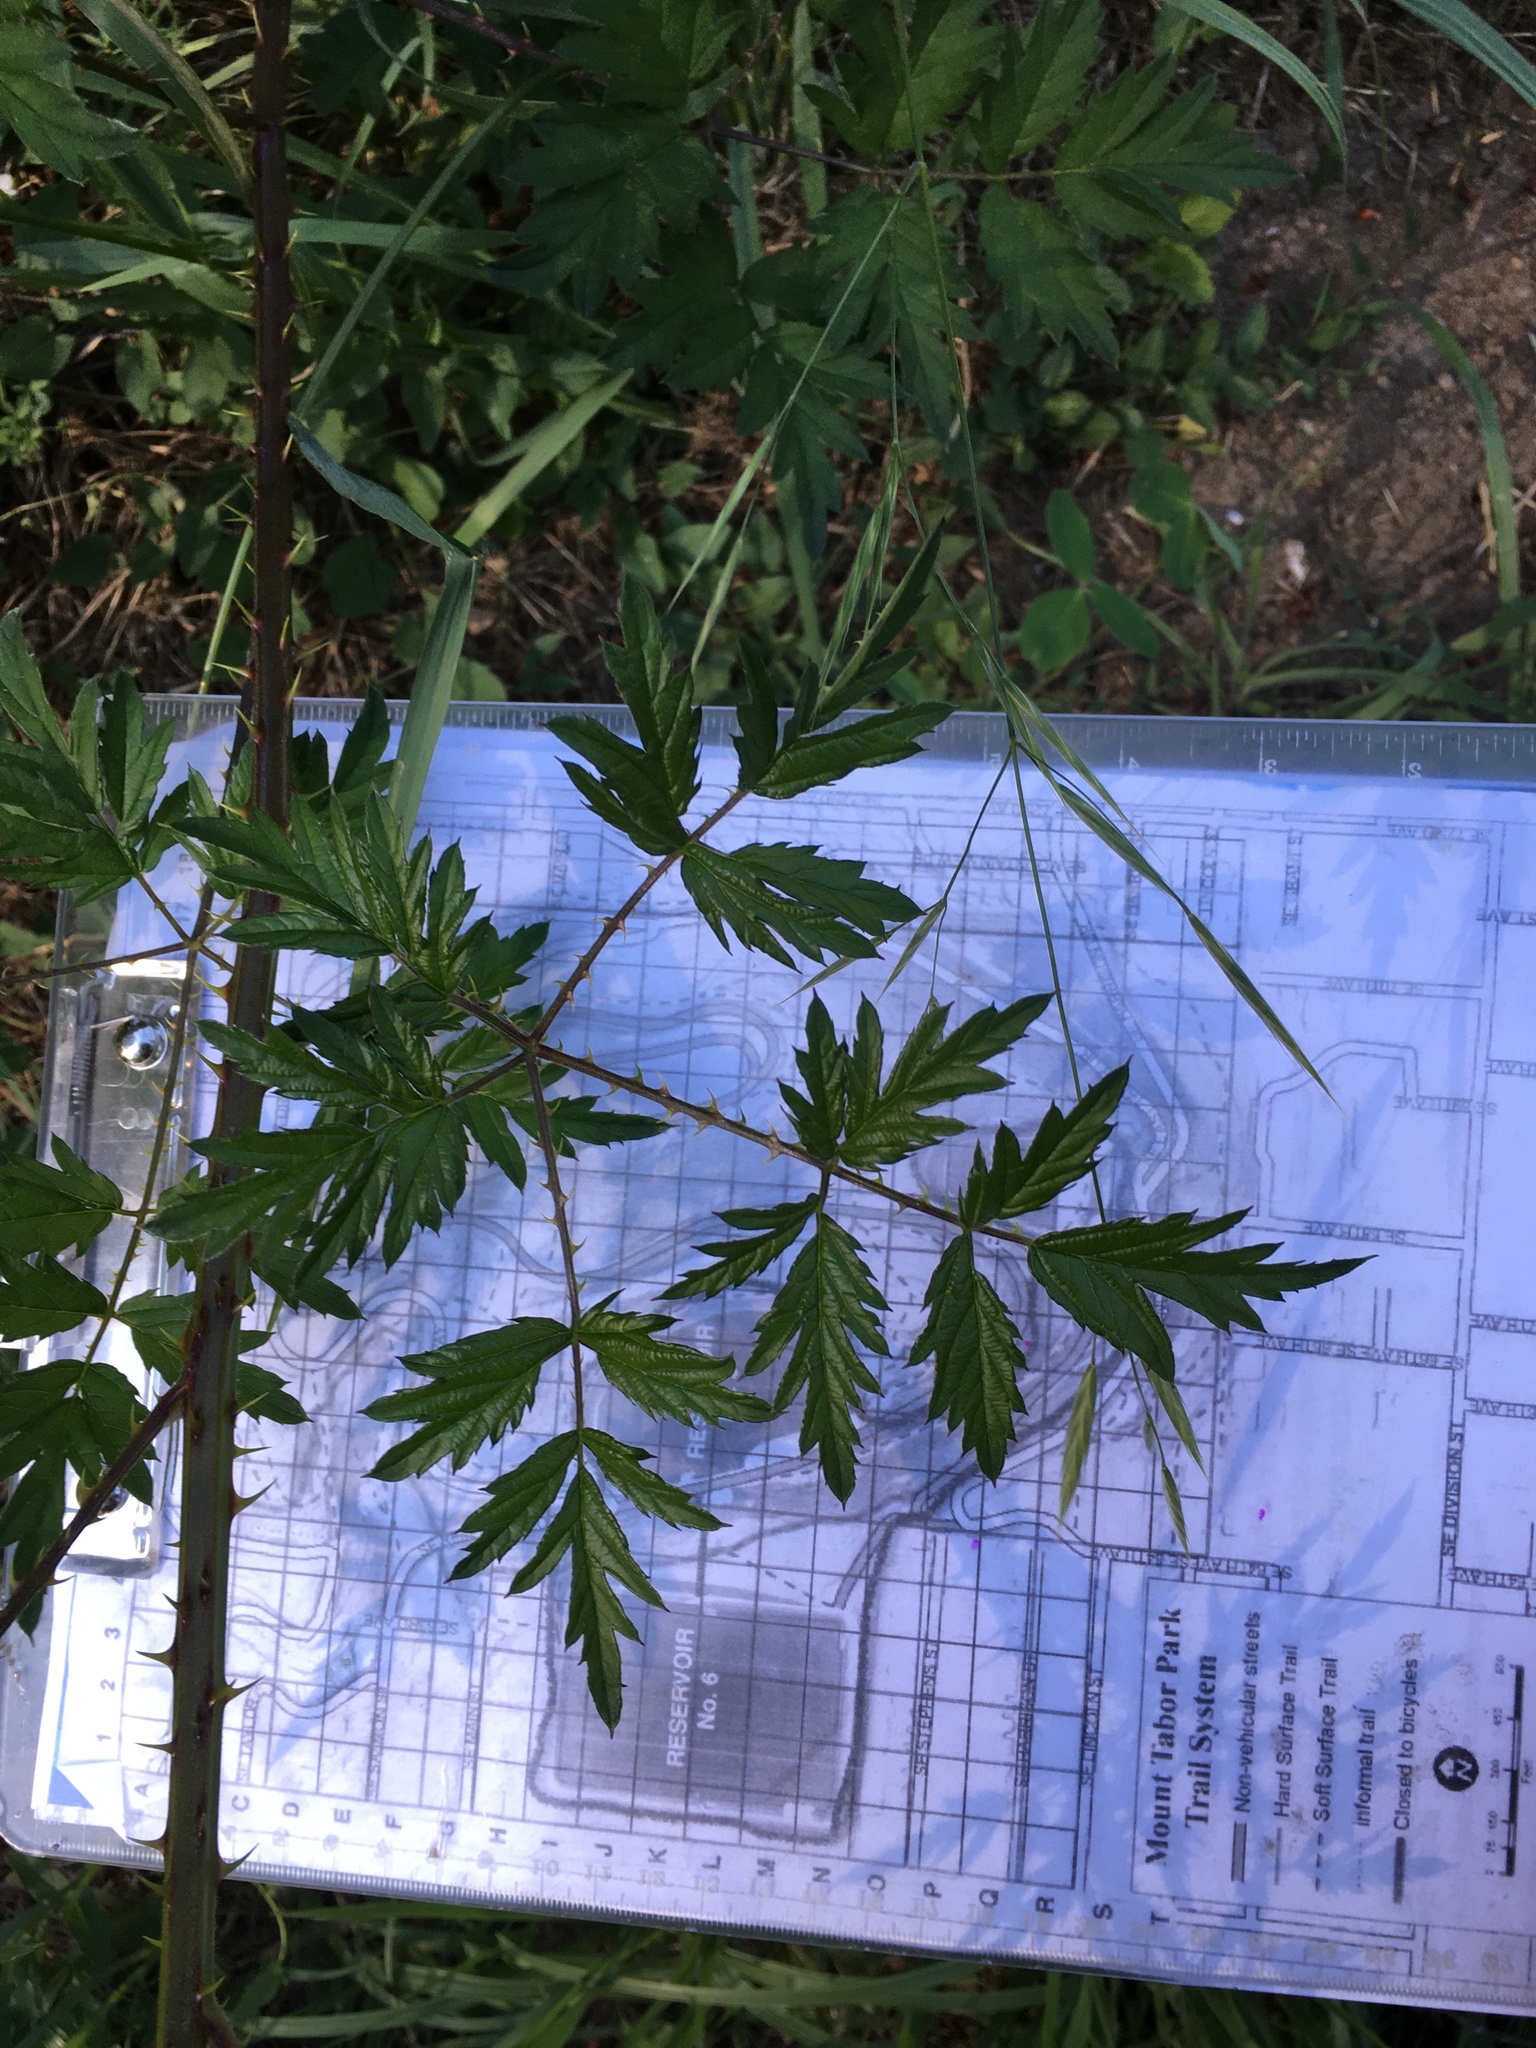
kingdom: Plantae
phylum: Tracheophyta
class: Magnoliopsida
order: Rosales
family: Rosaceae
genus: Rubus
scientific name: Rubus laciniatus
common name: Evergreen blackberry
